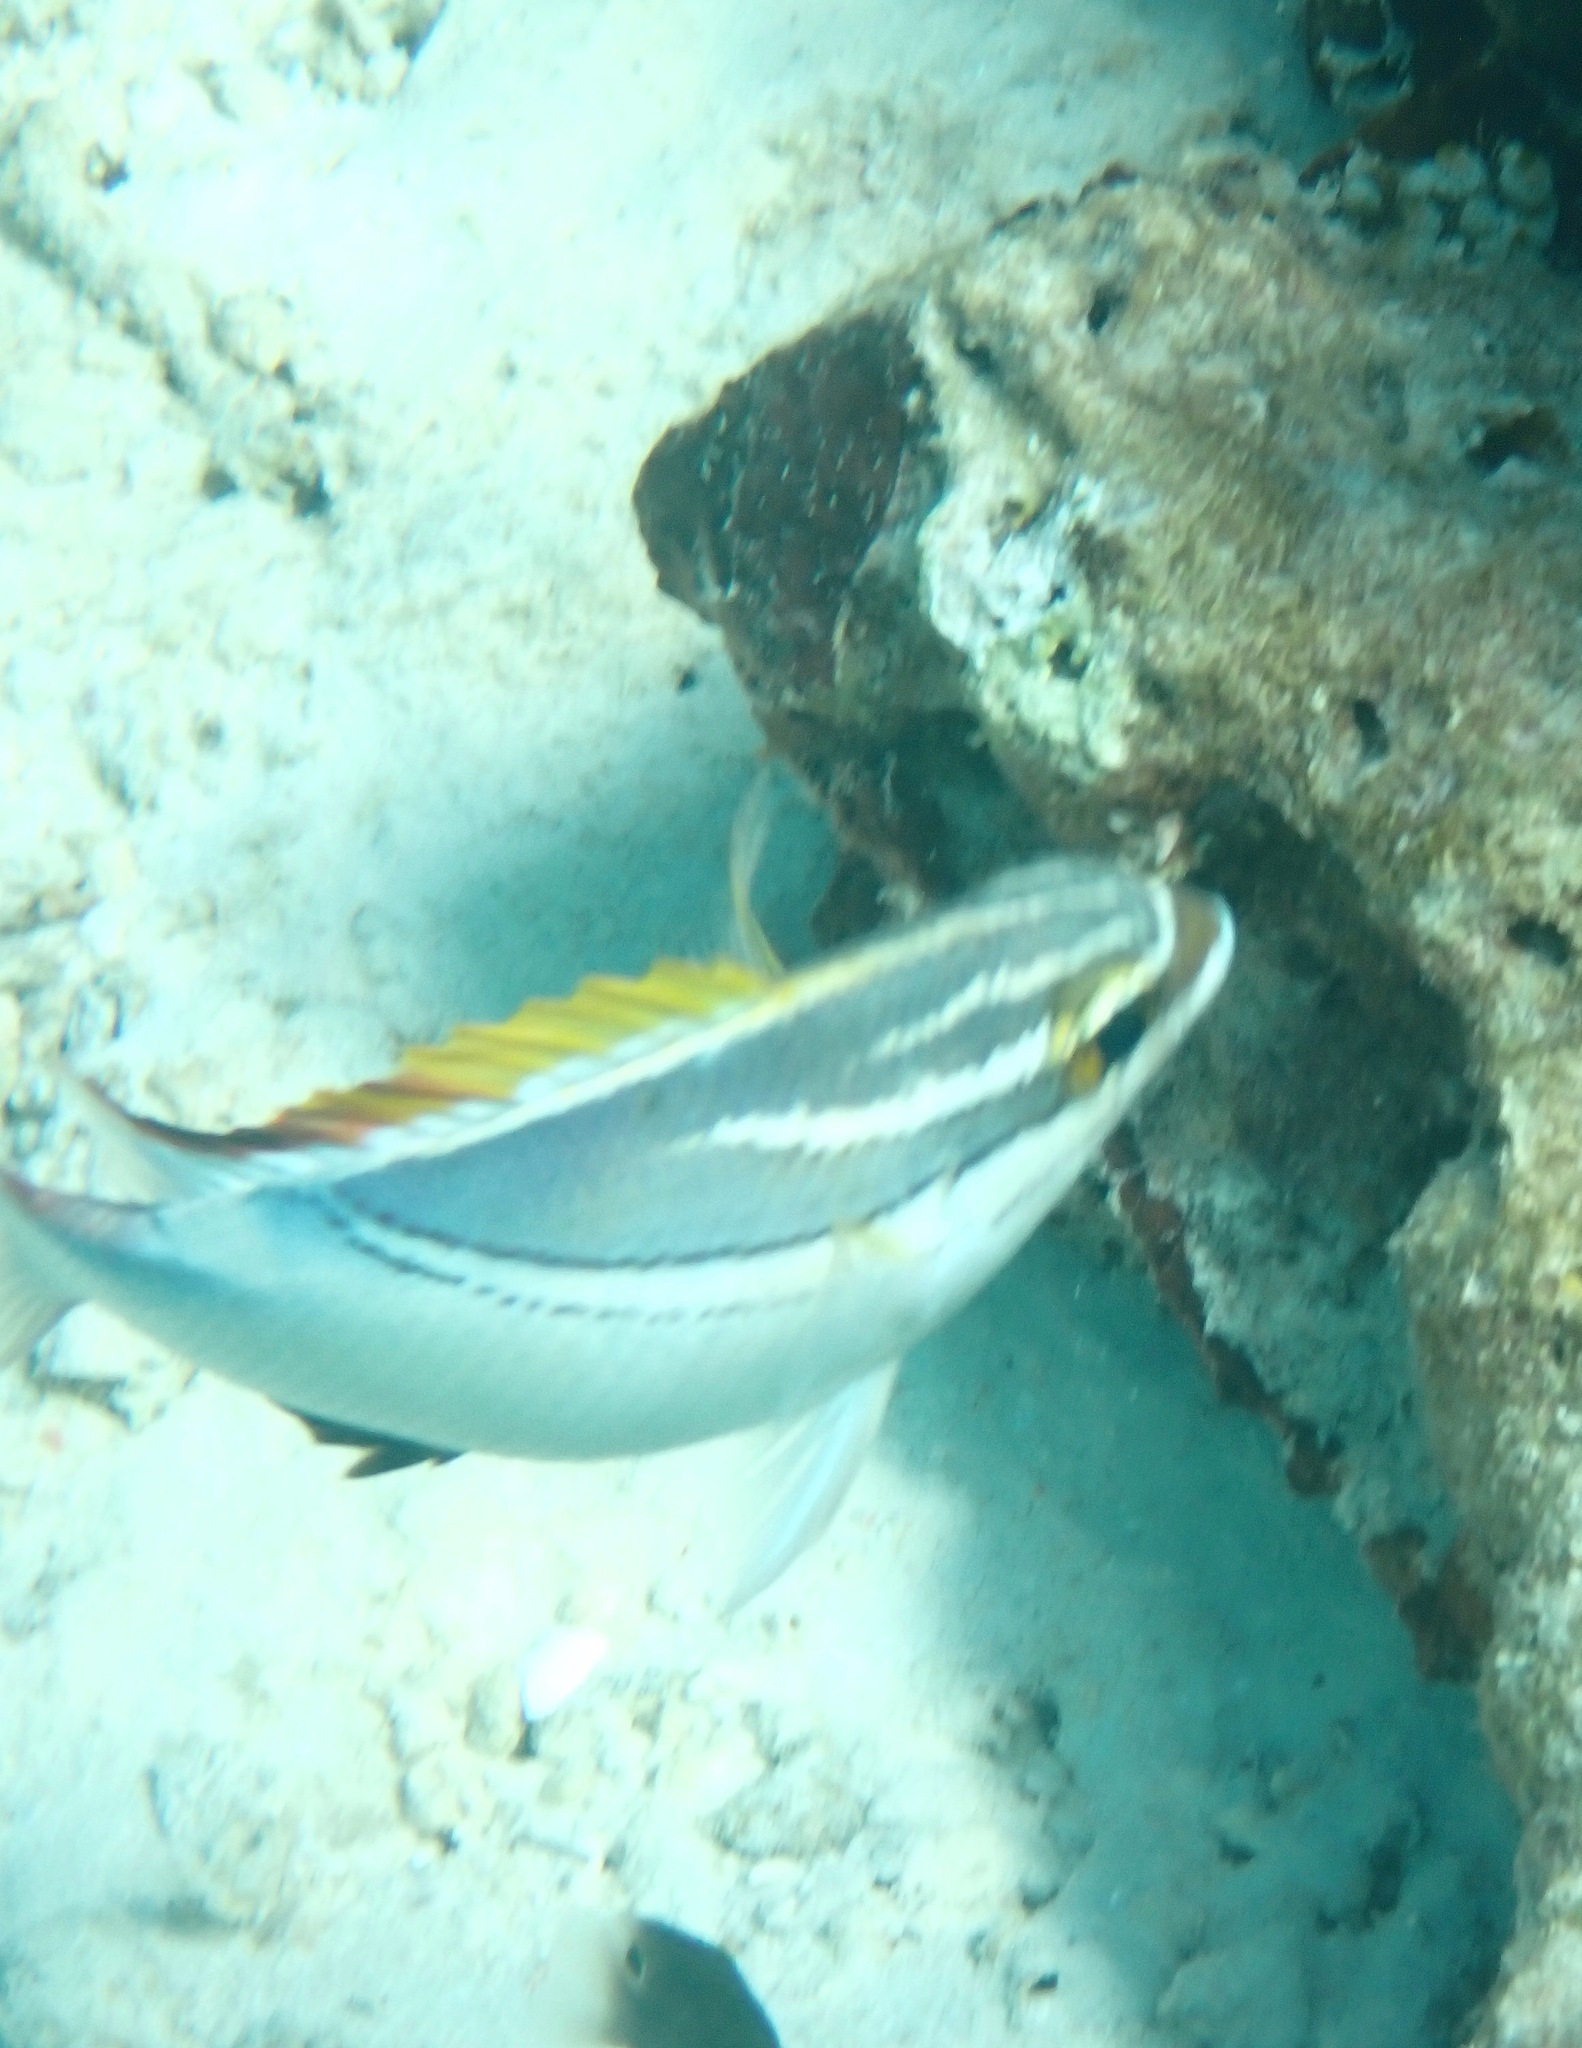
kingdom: Animalia
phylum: Chordata
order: Perciformes
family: Nemipteridae
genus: Scolopsis
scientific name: Scolopsis bilineata
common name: Two-lined monocle bream
